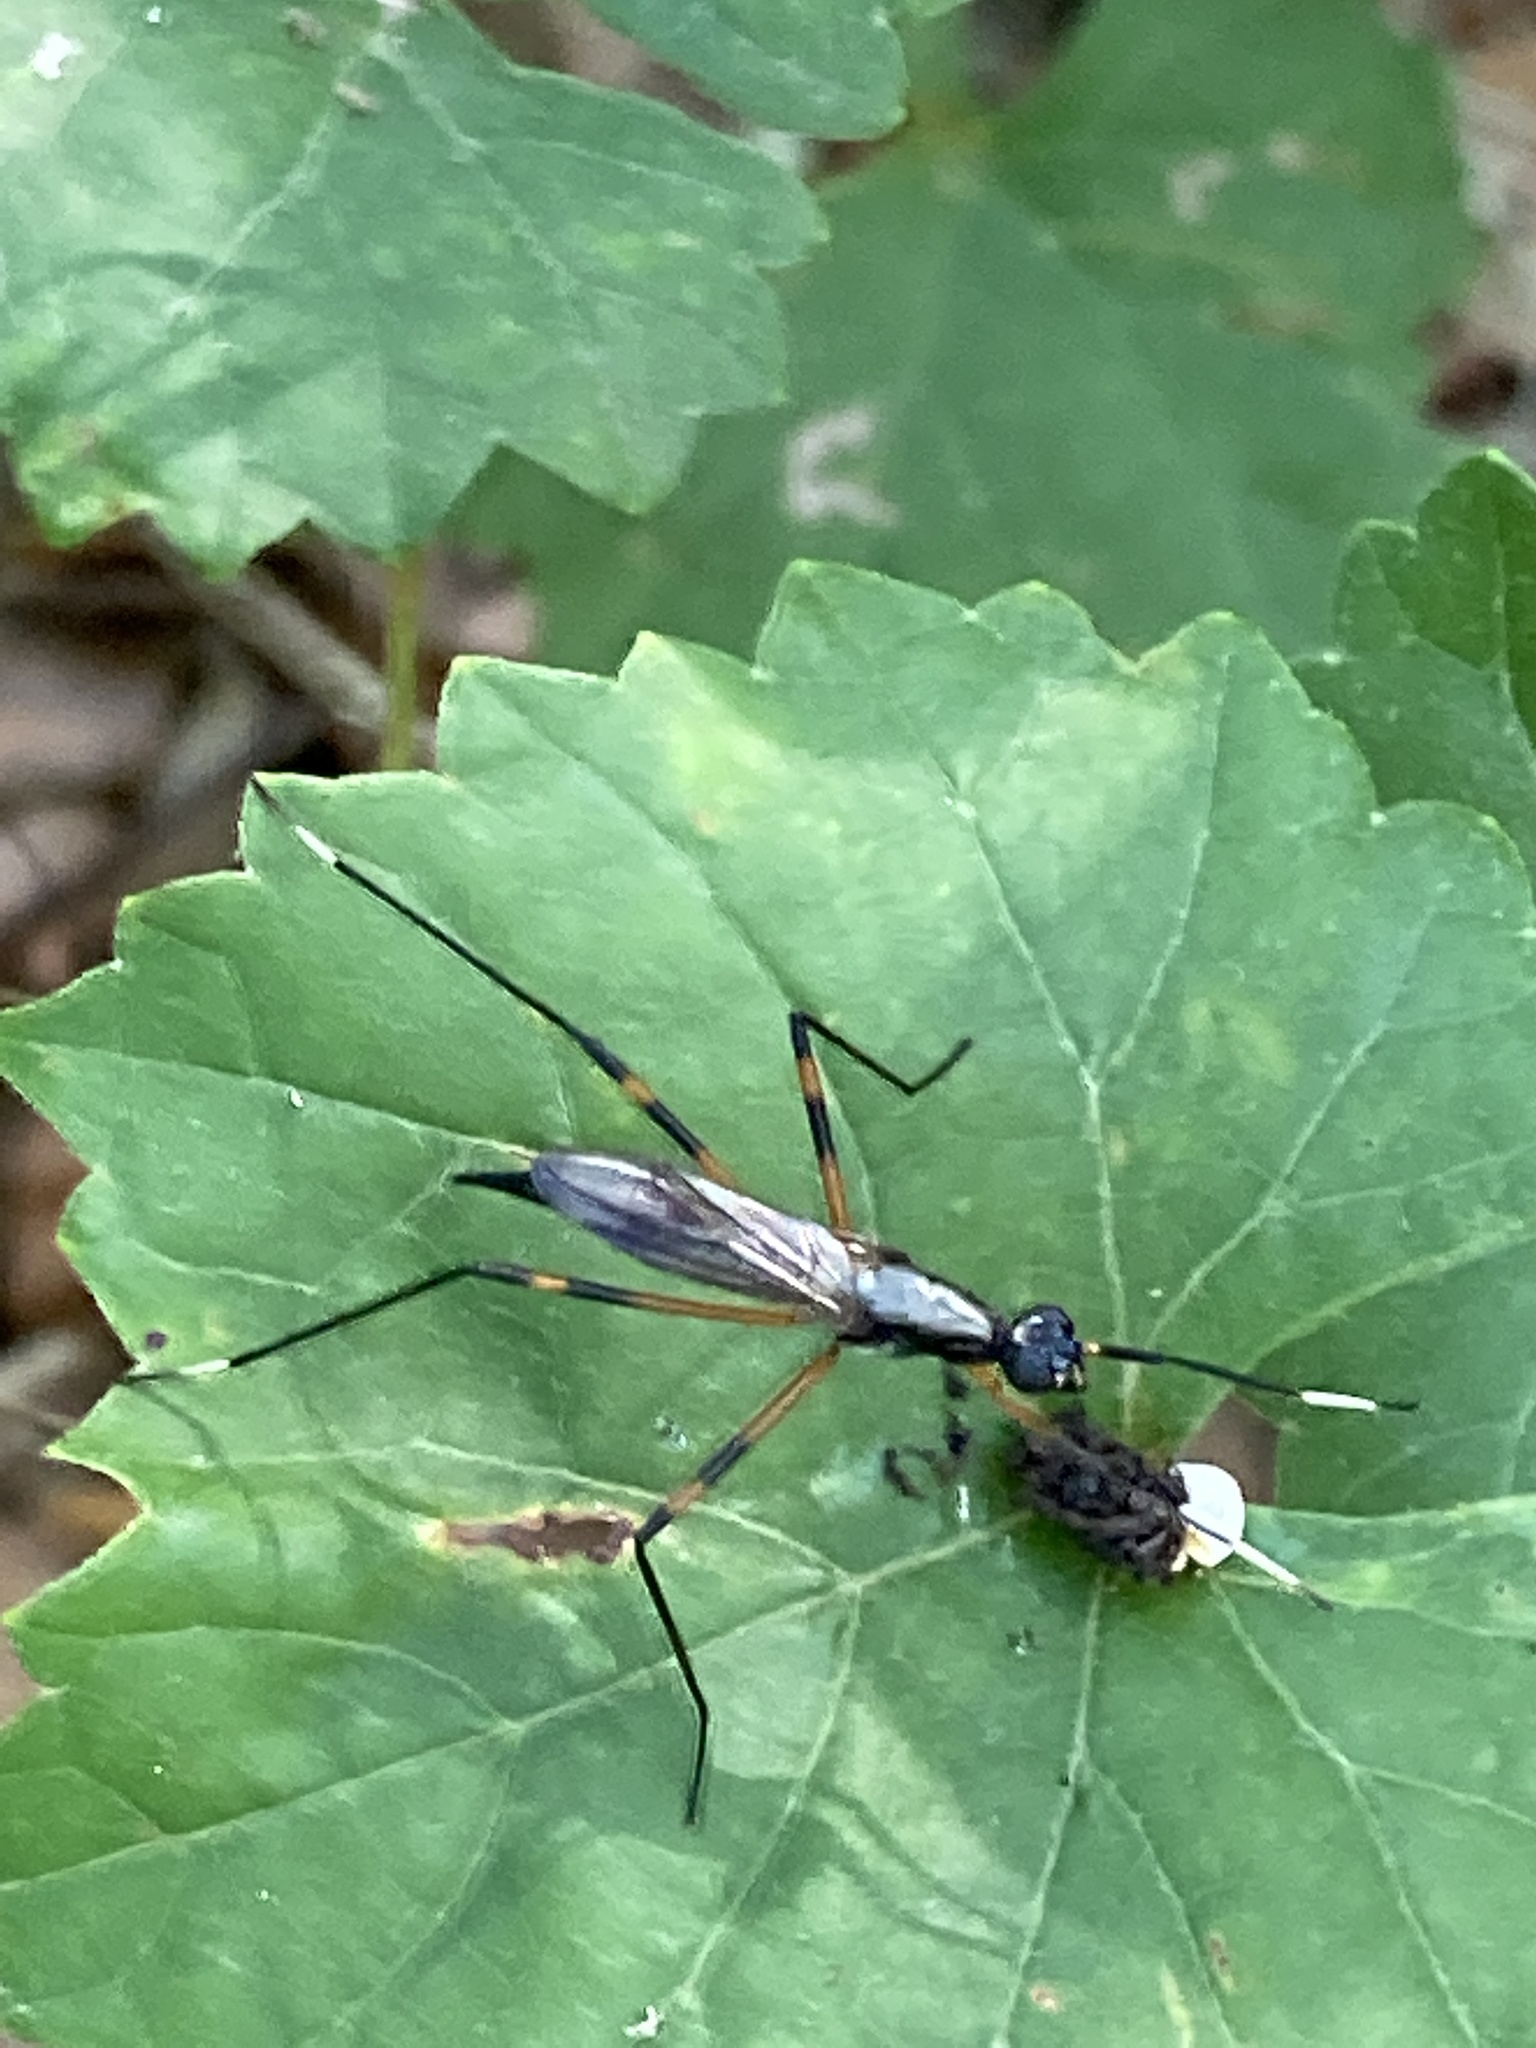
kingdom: Animalia
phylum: Arthropoda
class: Insecta
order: Diptera
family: Micropezidae
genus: Calobatina
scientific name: Calobatina geometra
